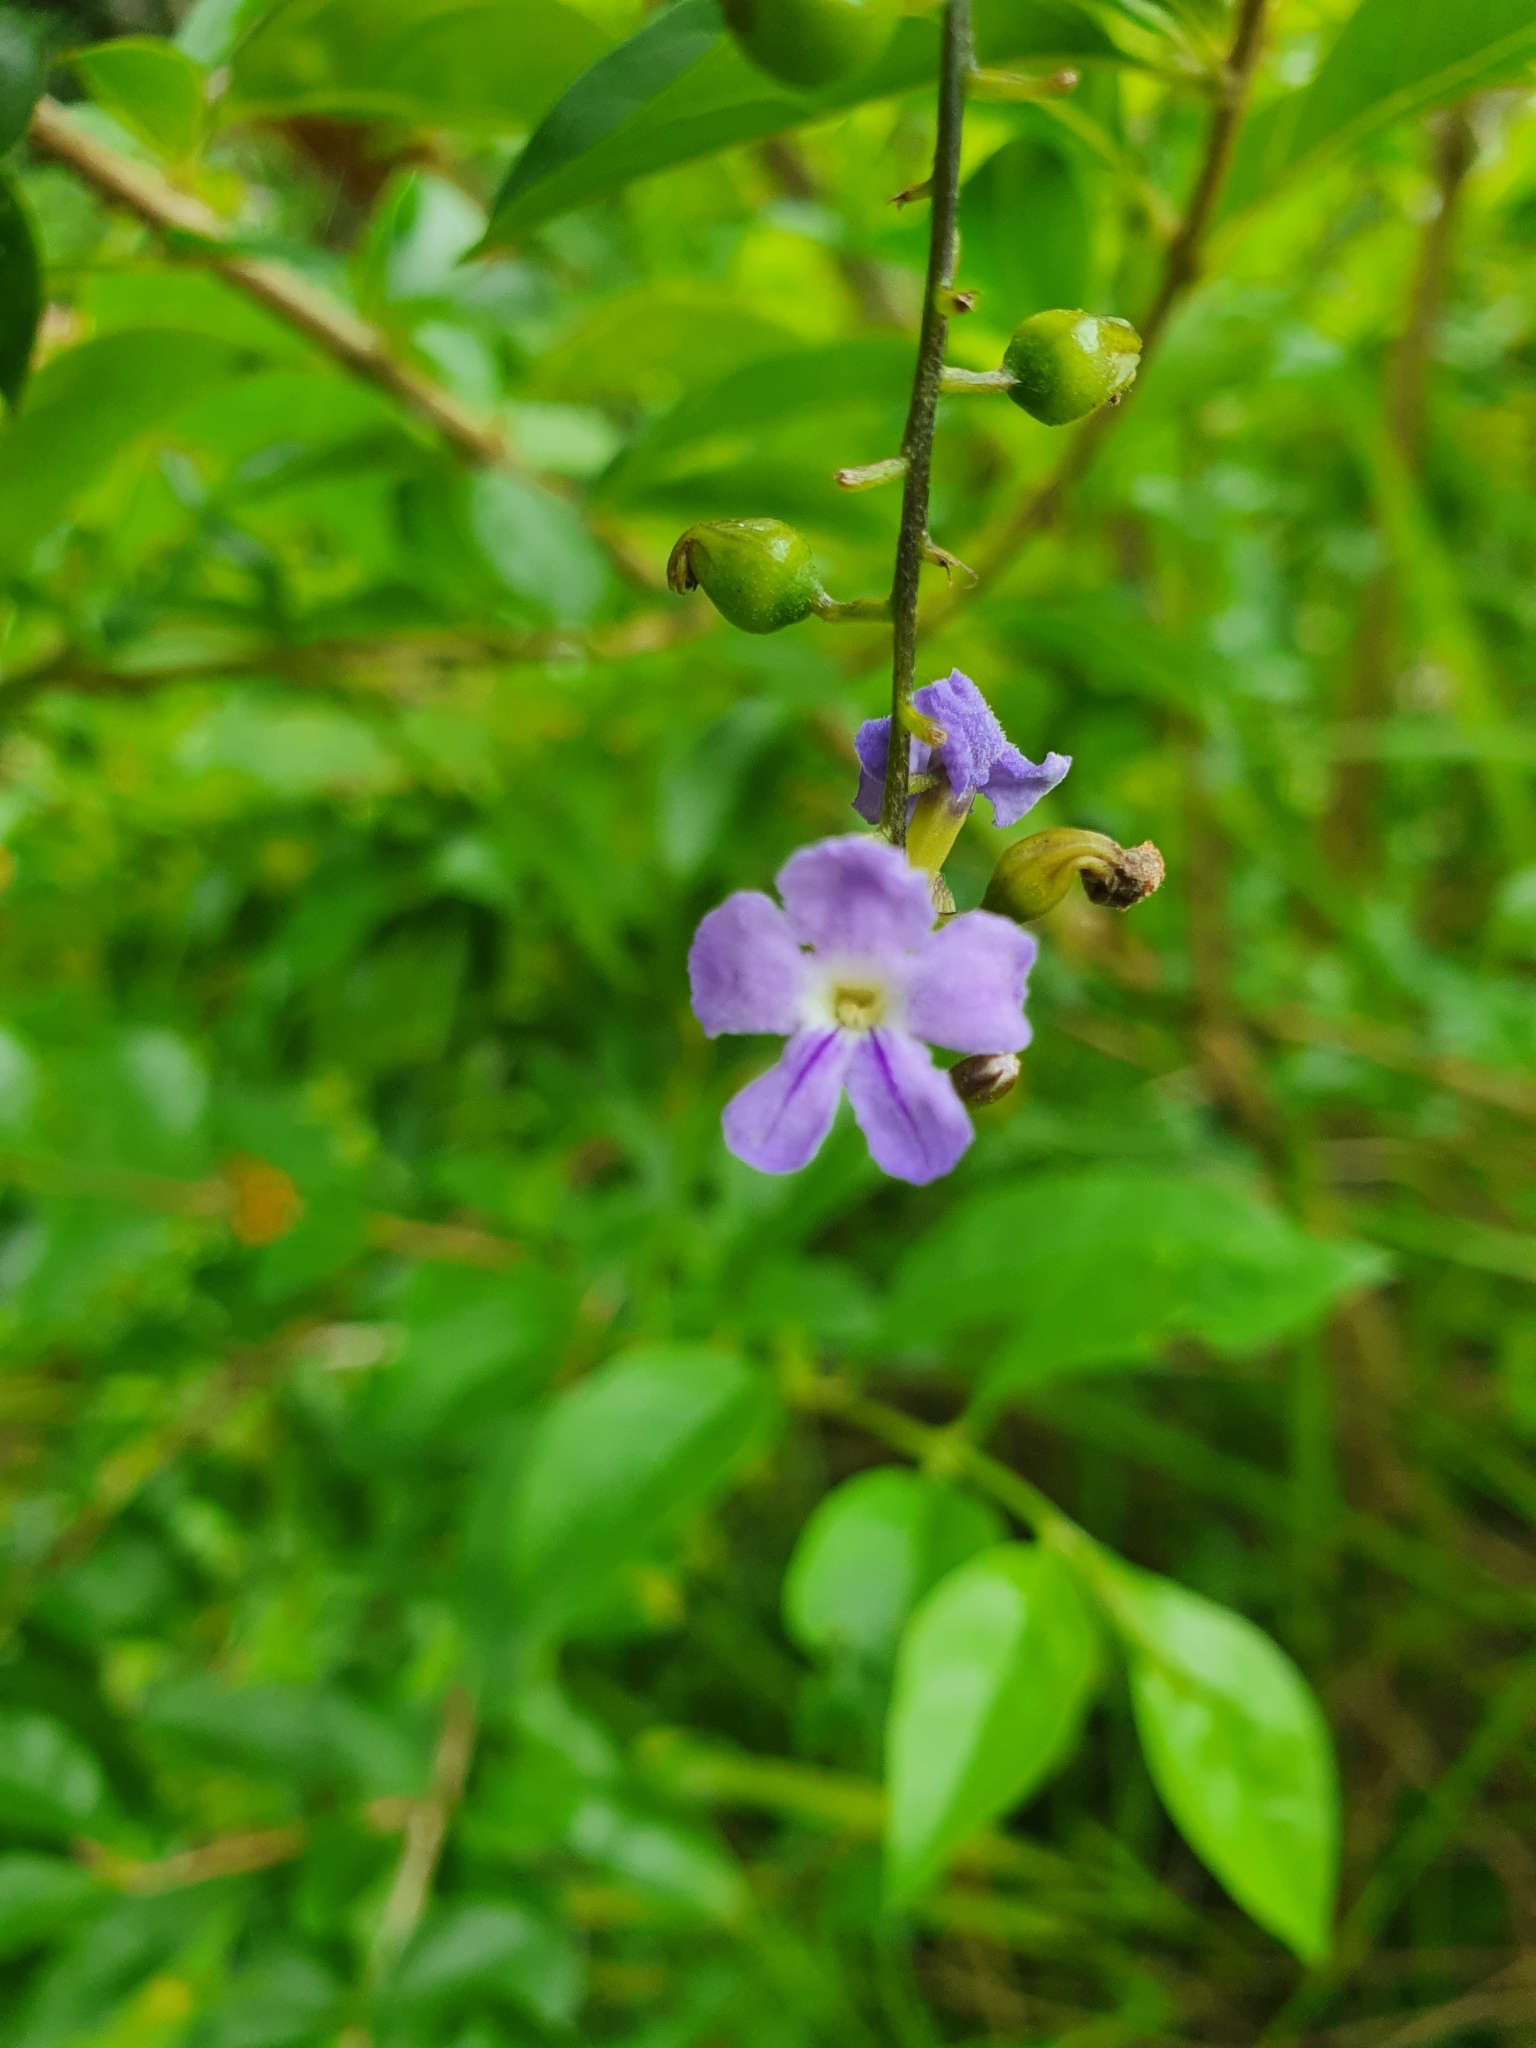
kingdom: Plantae
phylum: Tracheophyta
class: Magnoliopsida
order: Lamiales
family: Verbenaceae
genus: Duranta
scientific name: Duranta erecta
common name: Golden dewdrops
